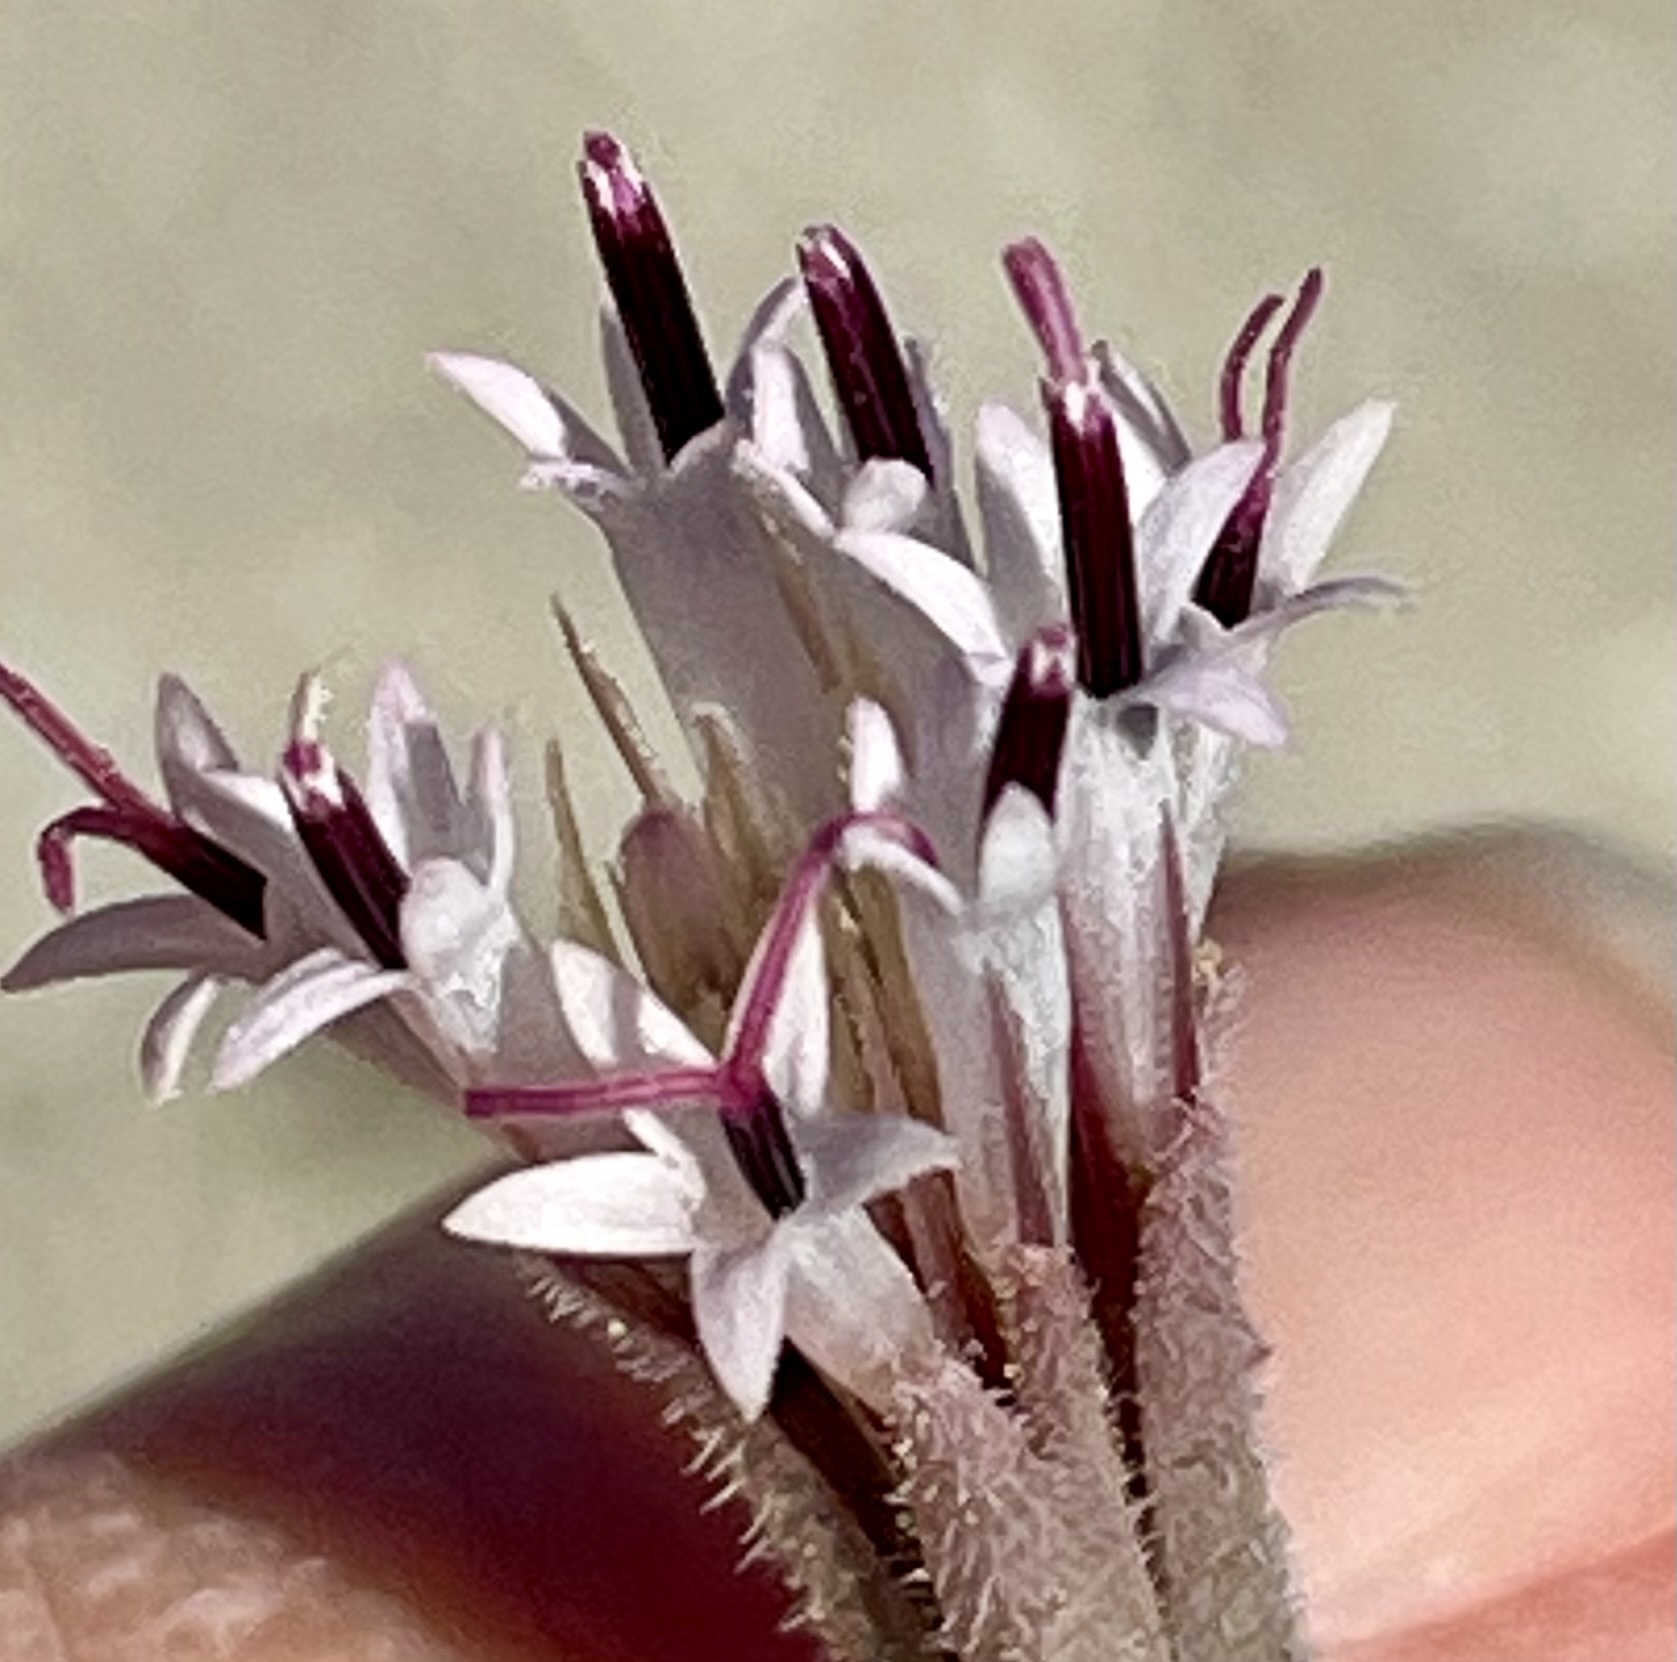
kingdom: Plantae
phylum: Tracheophyta
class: Magnoliopsida
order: Asterales
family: Asteraceae
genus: Palafoxia
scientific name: Palafoxia arida
